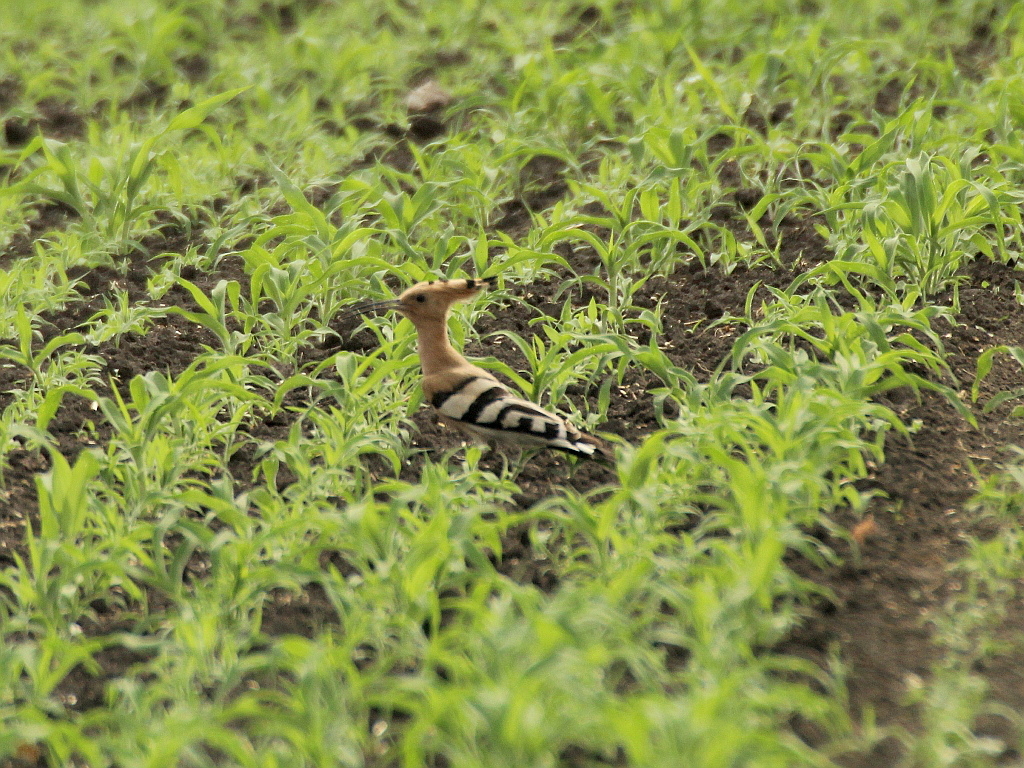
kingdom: Animalia
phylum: Chordata
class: Aves
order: Bucerotiformes
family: Upupidae
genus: Upupa
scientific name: Upupa epops
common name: Eurasian hoopoe
